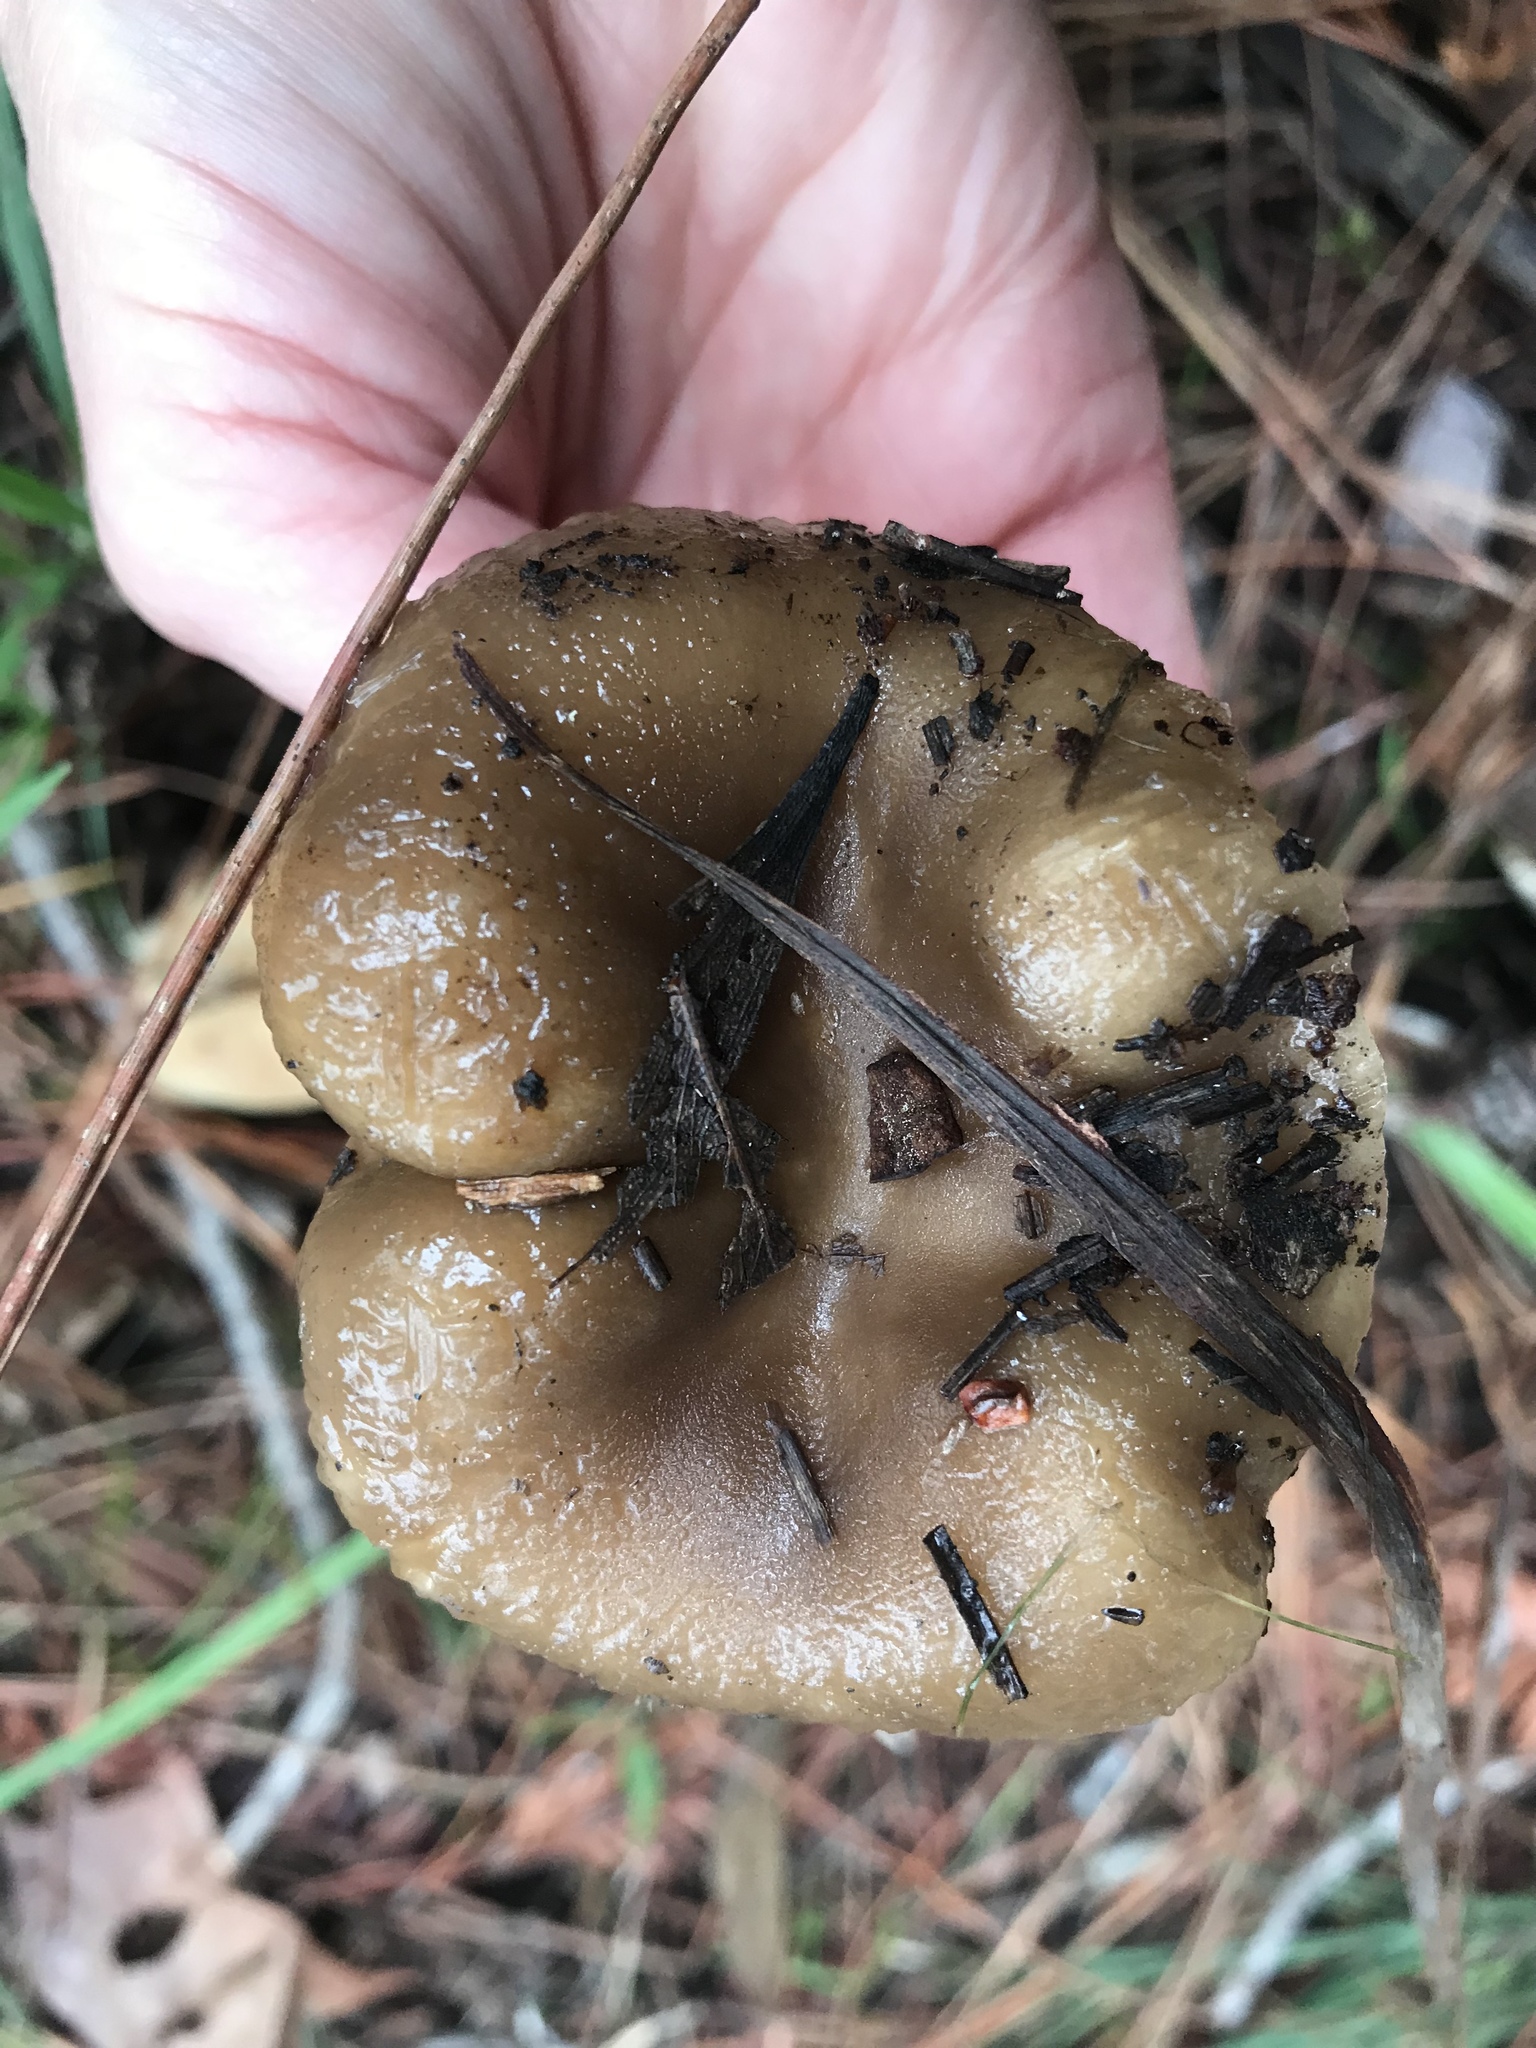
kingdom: Fungi
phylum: Basidiomycota
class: Agaricomycetes
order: Russulales
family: Russulaceae
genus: Russula
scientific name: Russula cerolens
